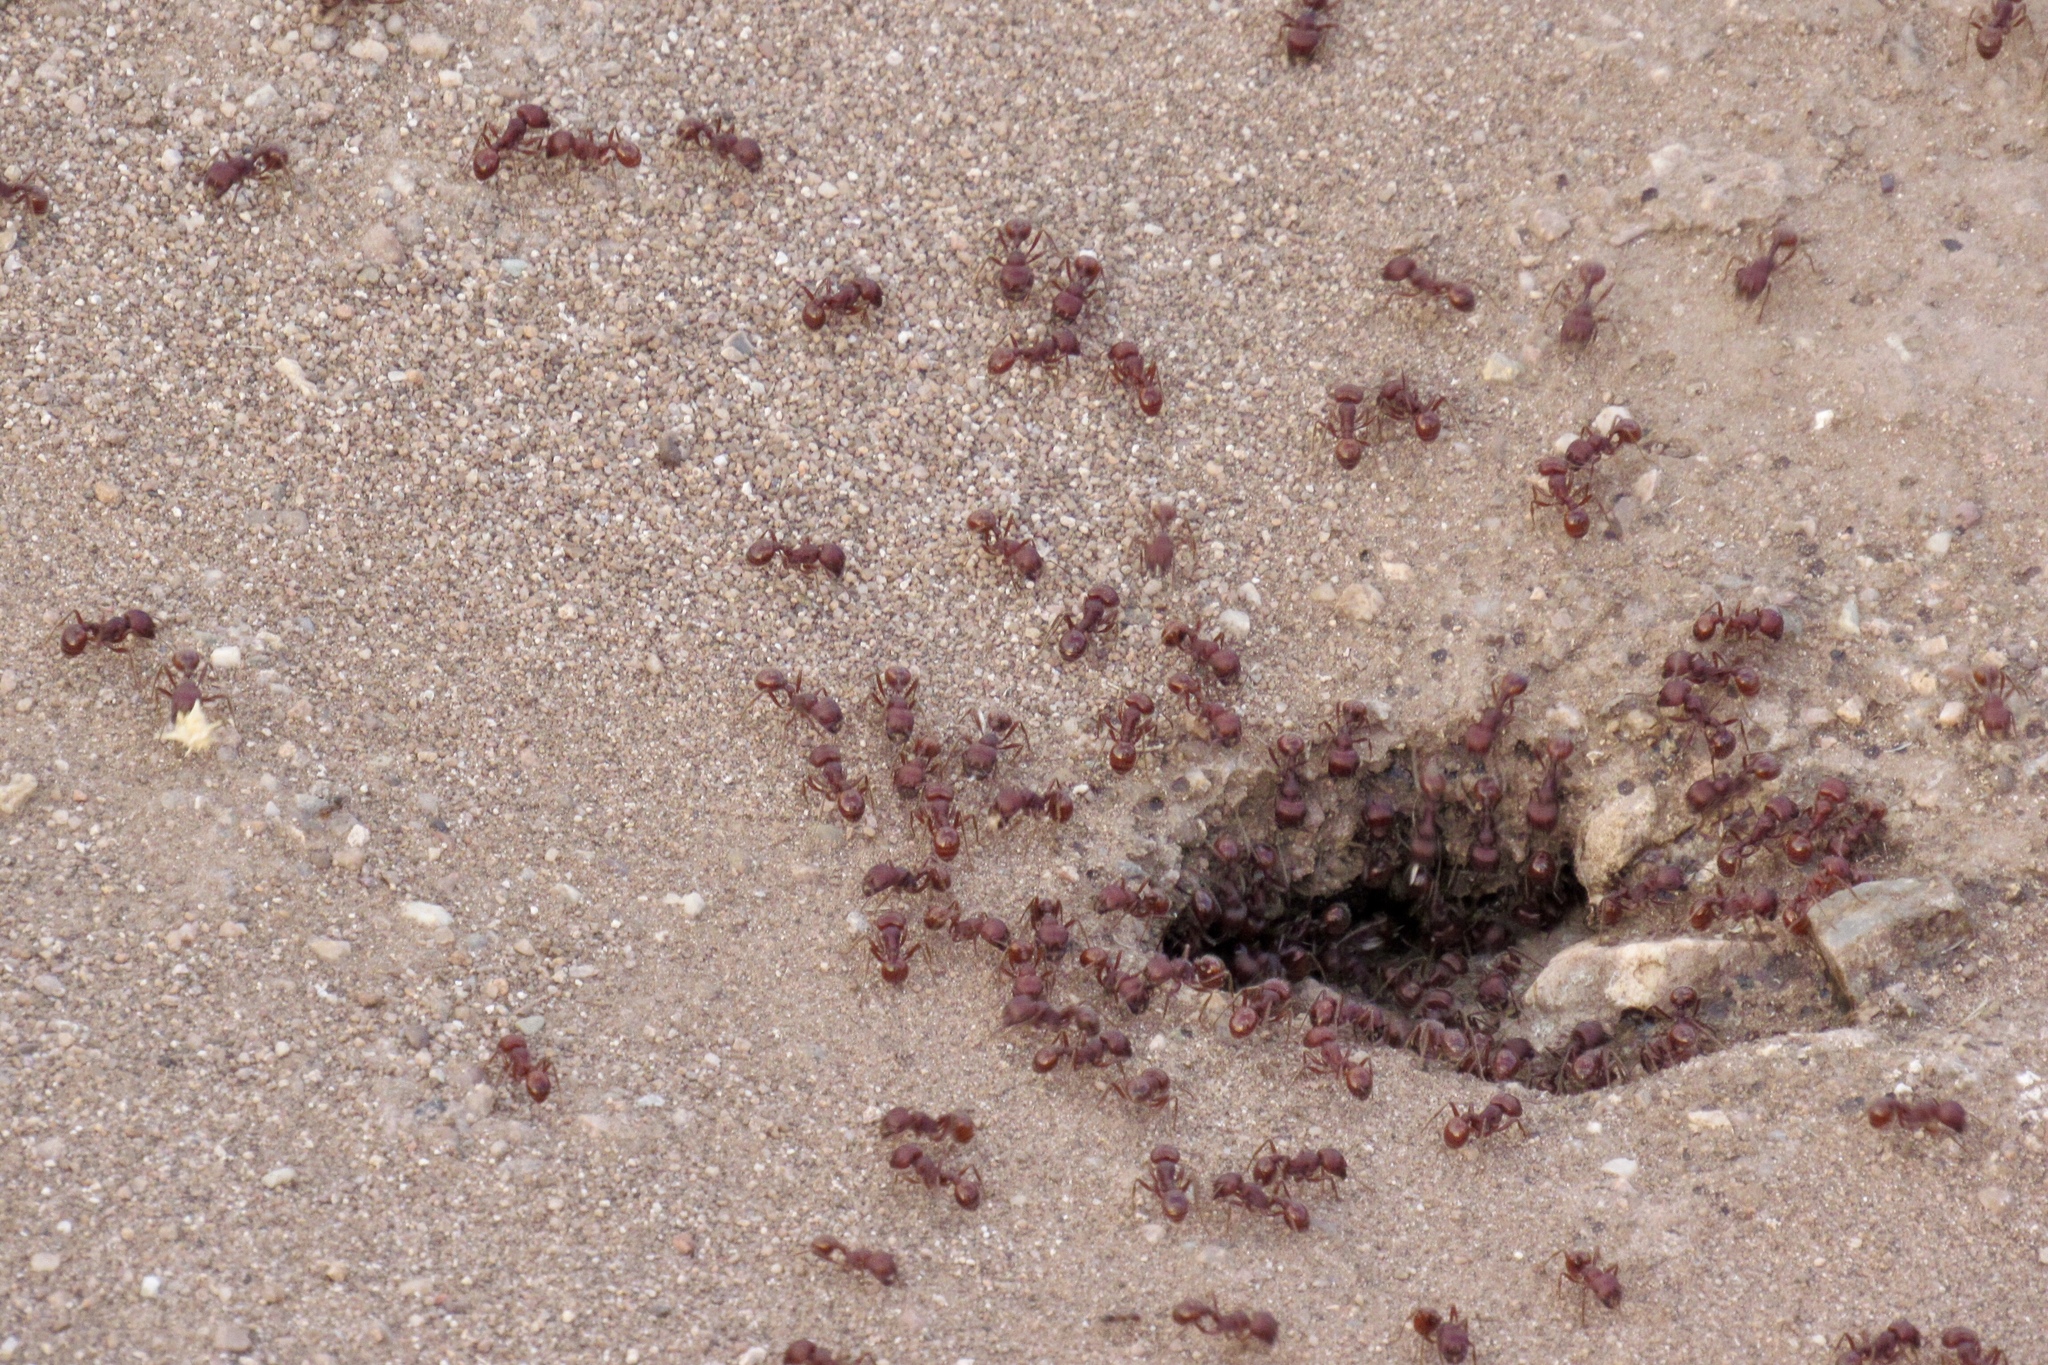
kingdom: Animalia
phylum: Arthropoda
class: Insecta
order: Hymenoptera
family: Formicidae
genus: Pogonomyrmex
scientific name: Pogonomyrmex barbatus
